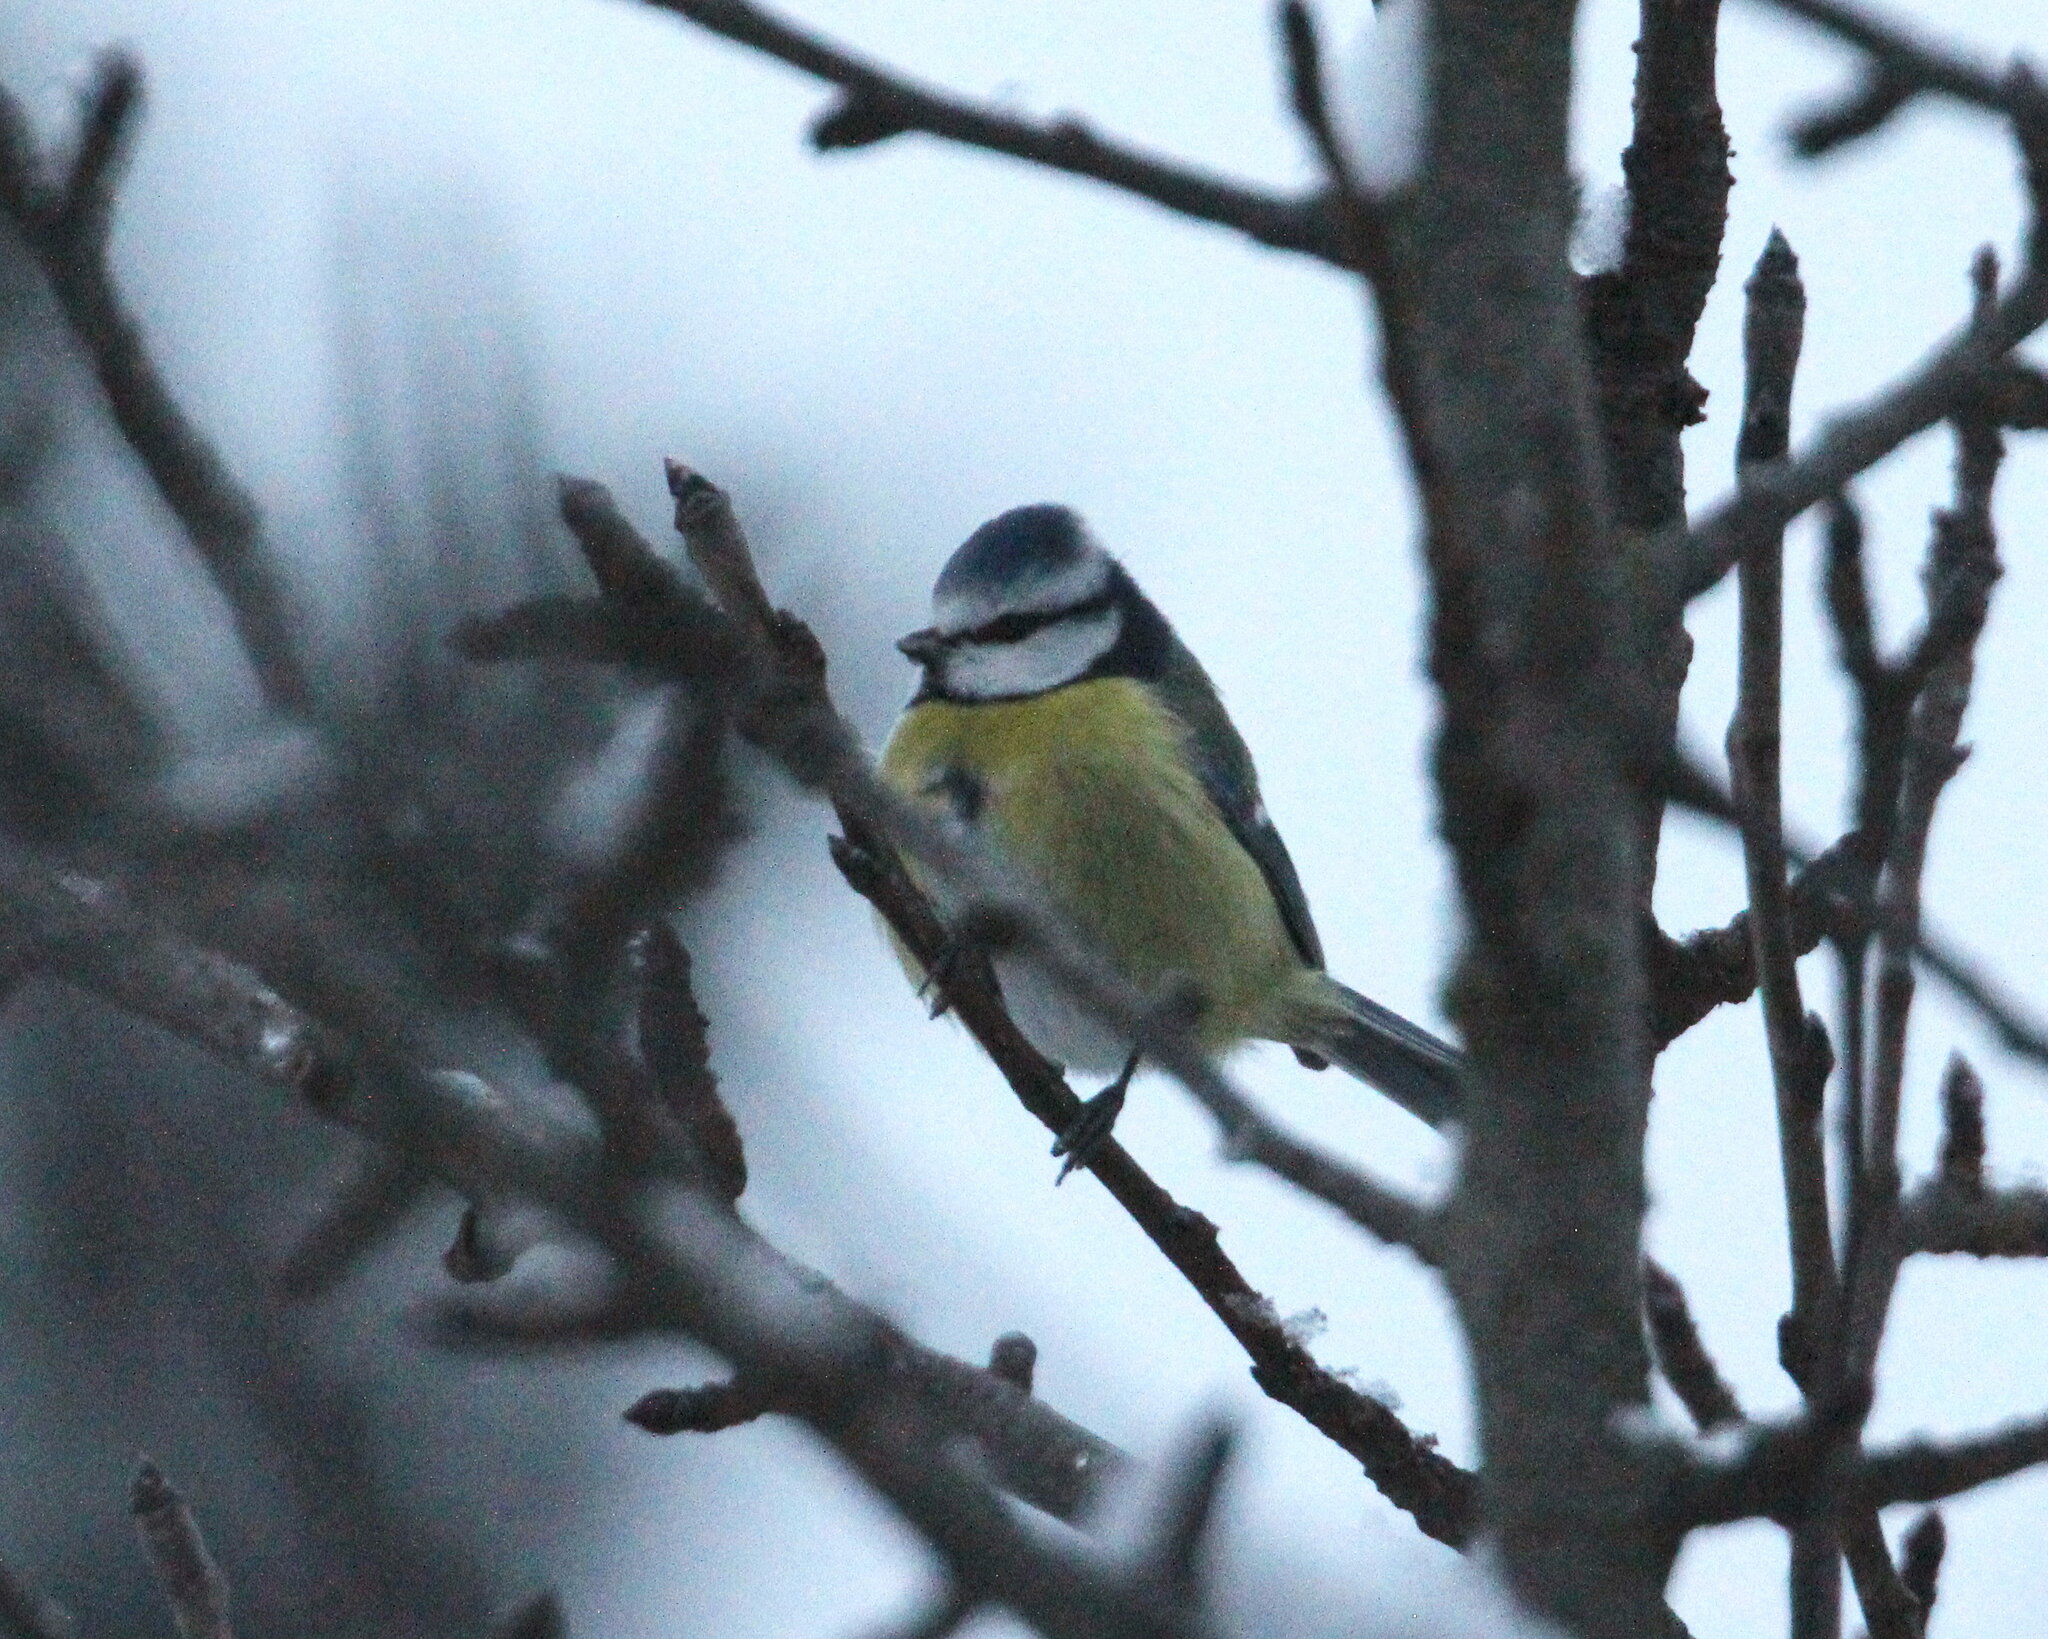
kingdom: Animalia
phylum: Chordata
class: Aves
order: Passeriformes
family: Paridae
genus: Cyanistes
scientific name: Cyanistes caeruleus
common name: Eurasian blue tit
